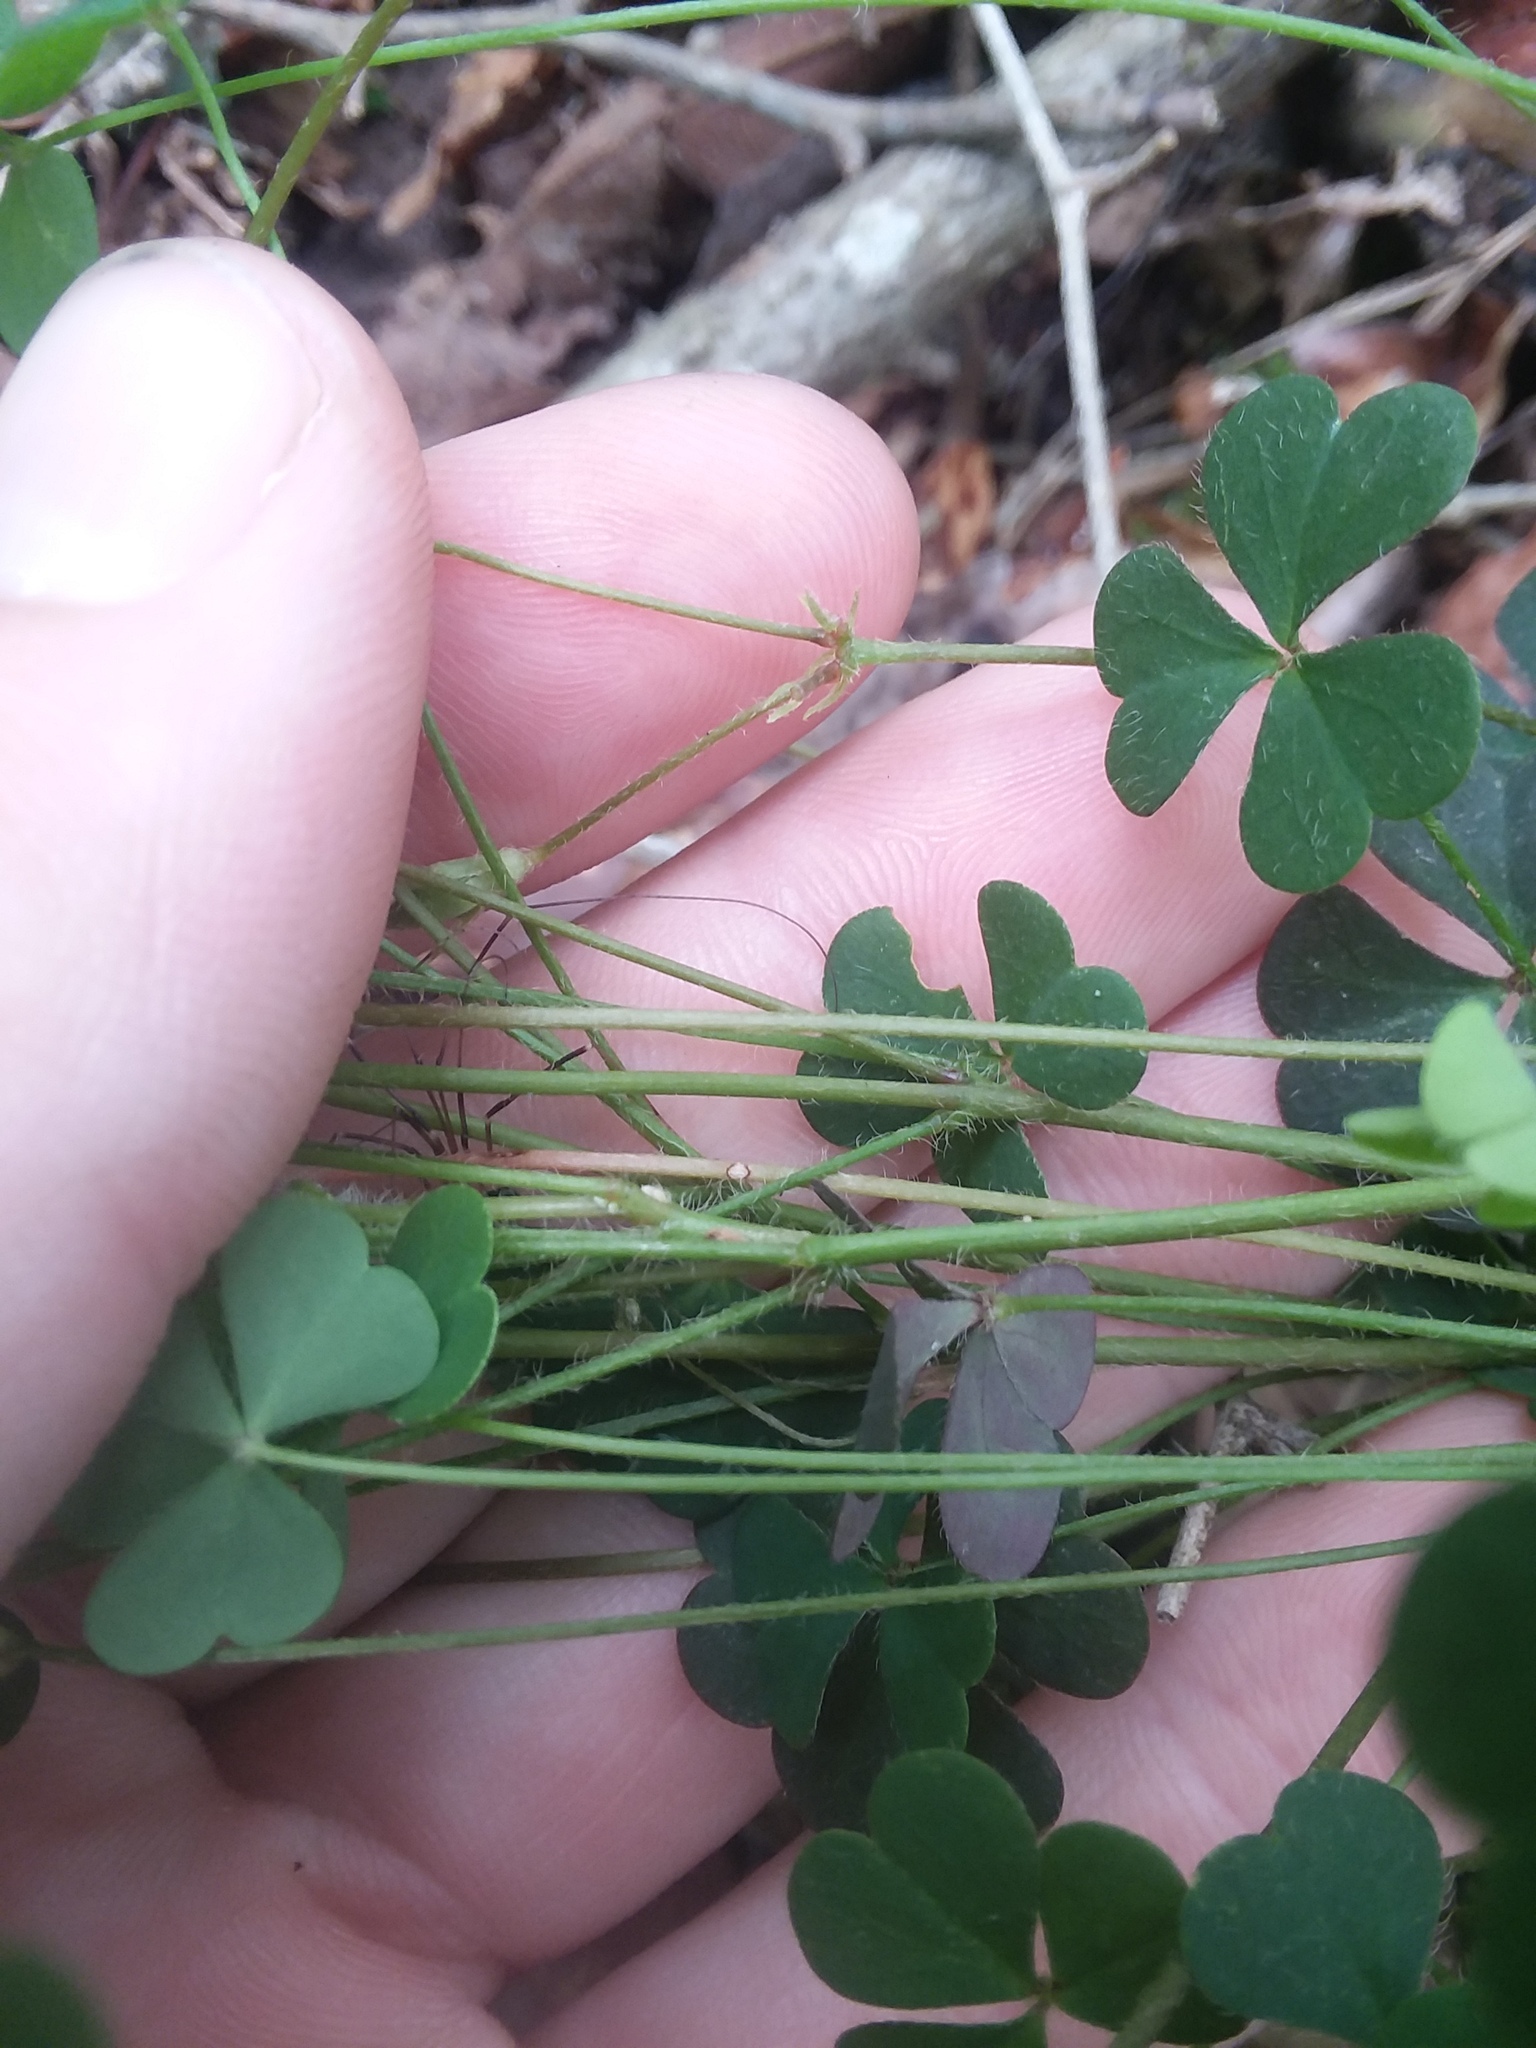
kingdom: Plantae
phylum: Tracheophyta
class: Magnoliopsida
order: Oxalidales
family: Oxalidaceae
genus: Oxalis
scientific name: Oxalis colorea
